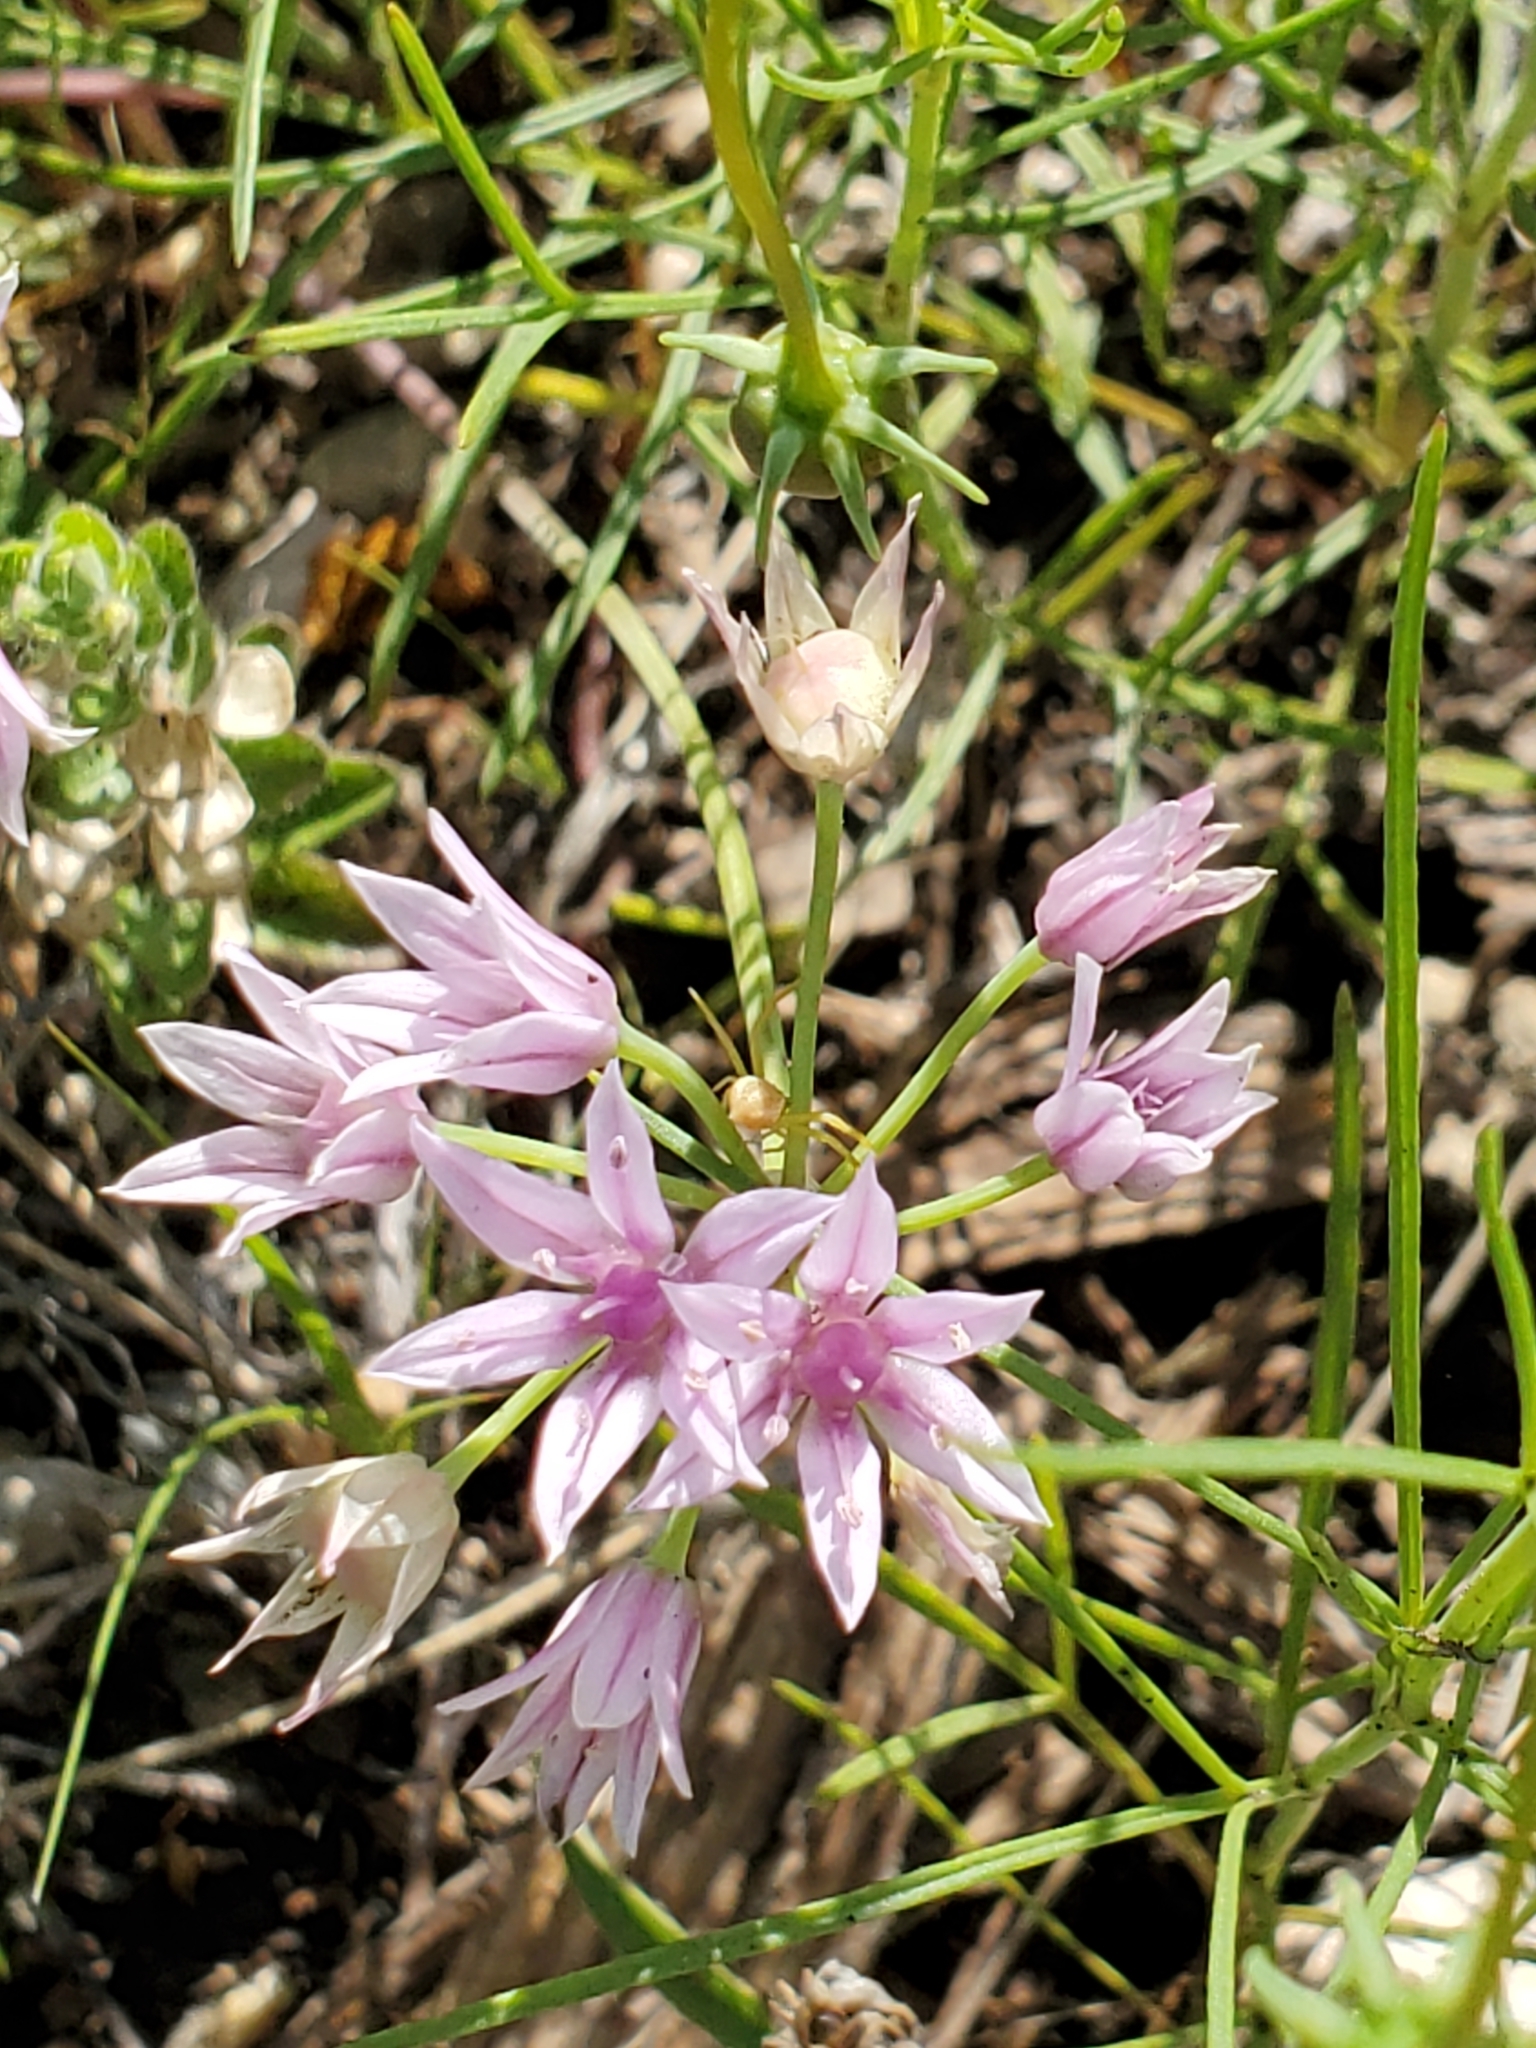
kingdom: Plantae
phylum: Tracheophyta
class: Liliopsida
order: Asparagales
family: Amaryllidaceae
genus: Allium
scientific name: Allium drummondii
